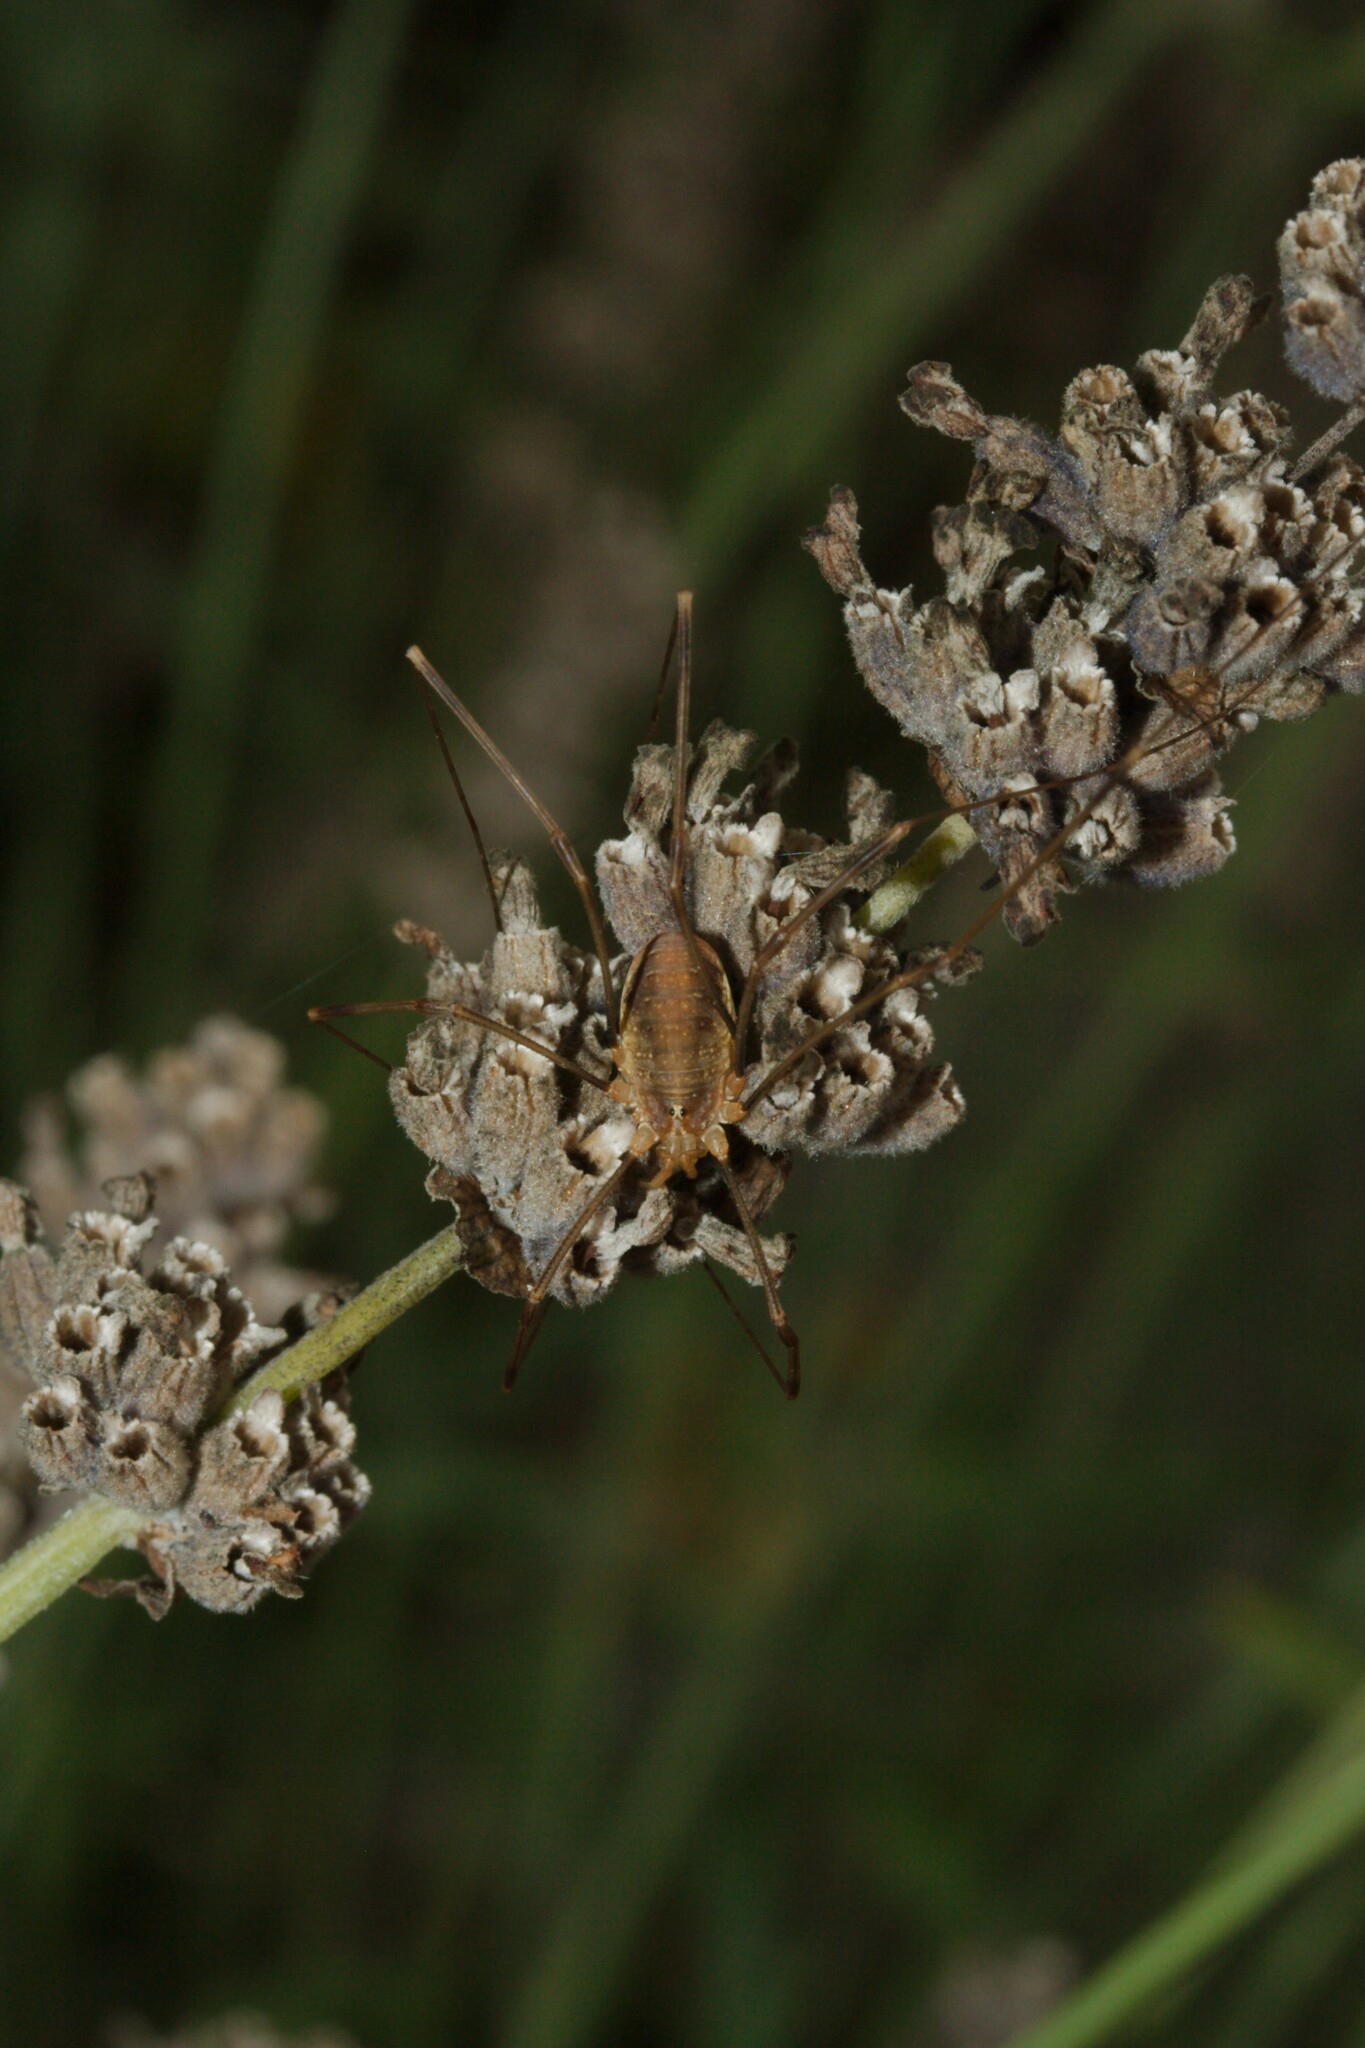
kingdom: Animalia
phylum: Arthropoda
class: Arachnida
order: Opiliones
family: Phalangiidae
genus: Opilio
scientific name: Opilio canestrinii
